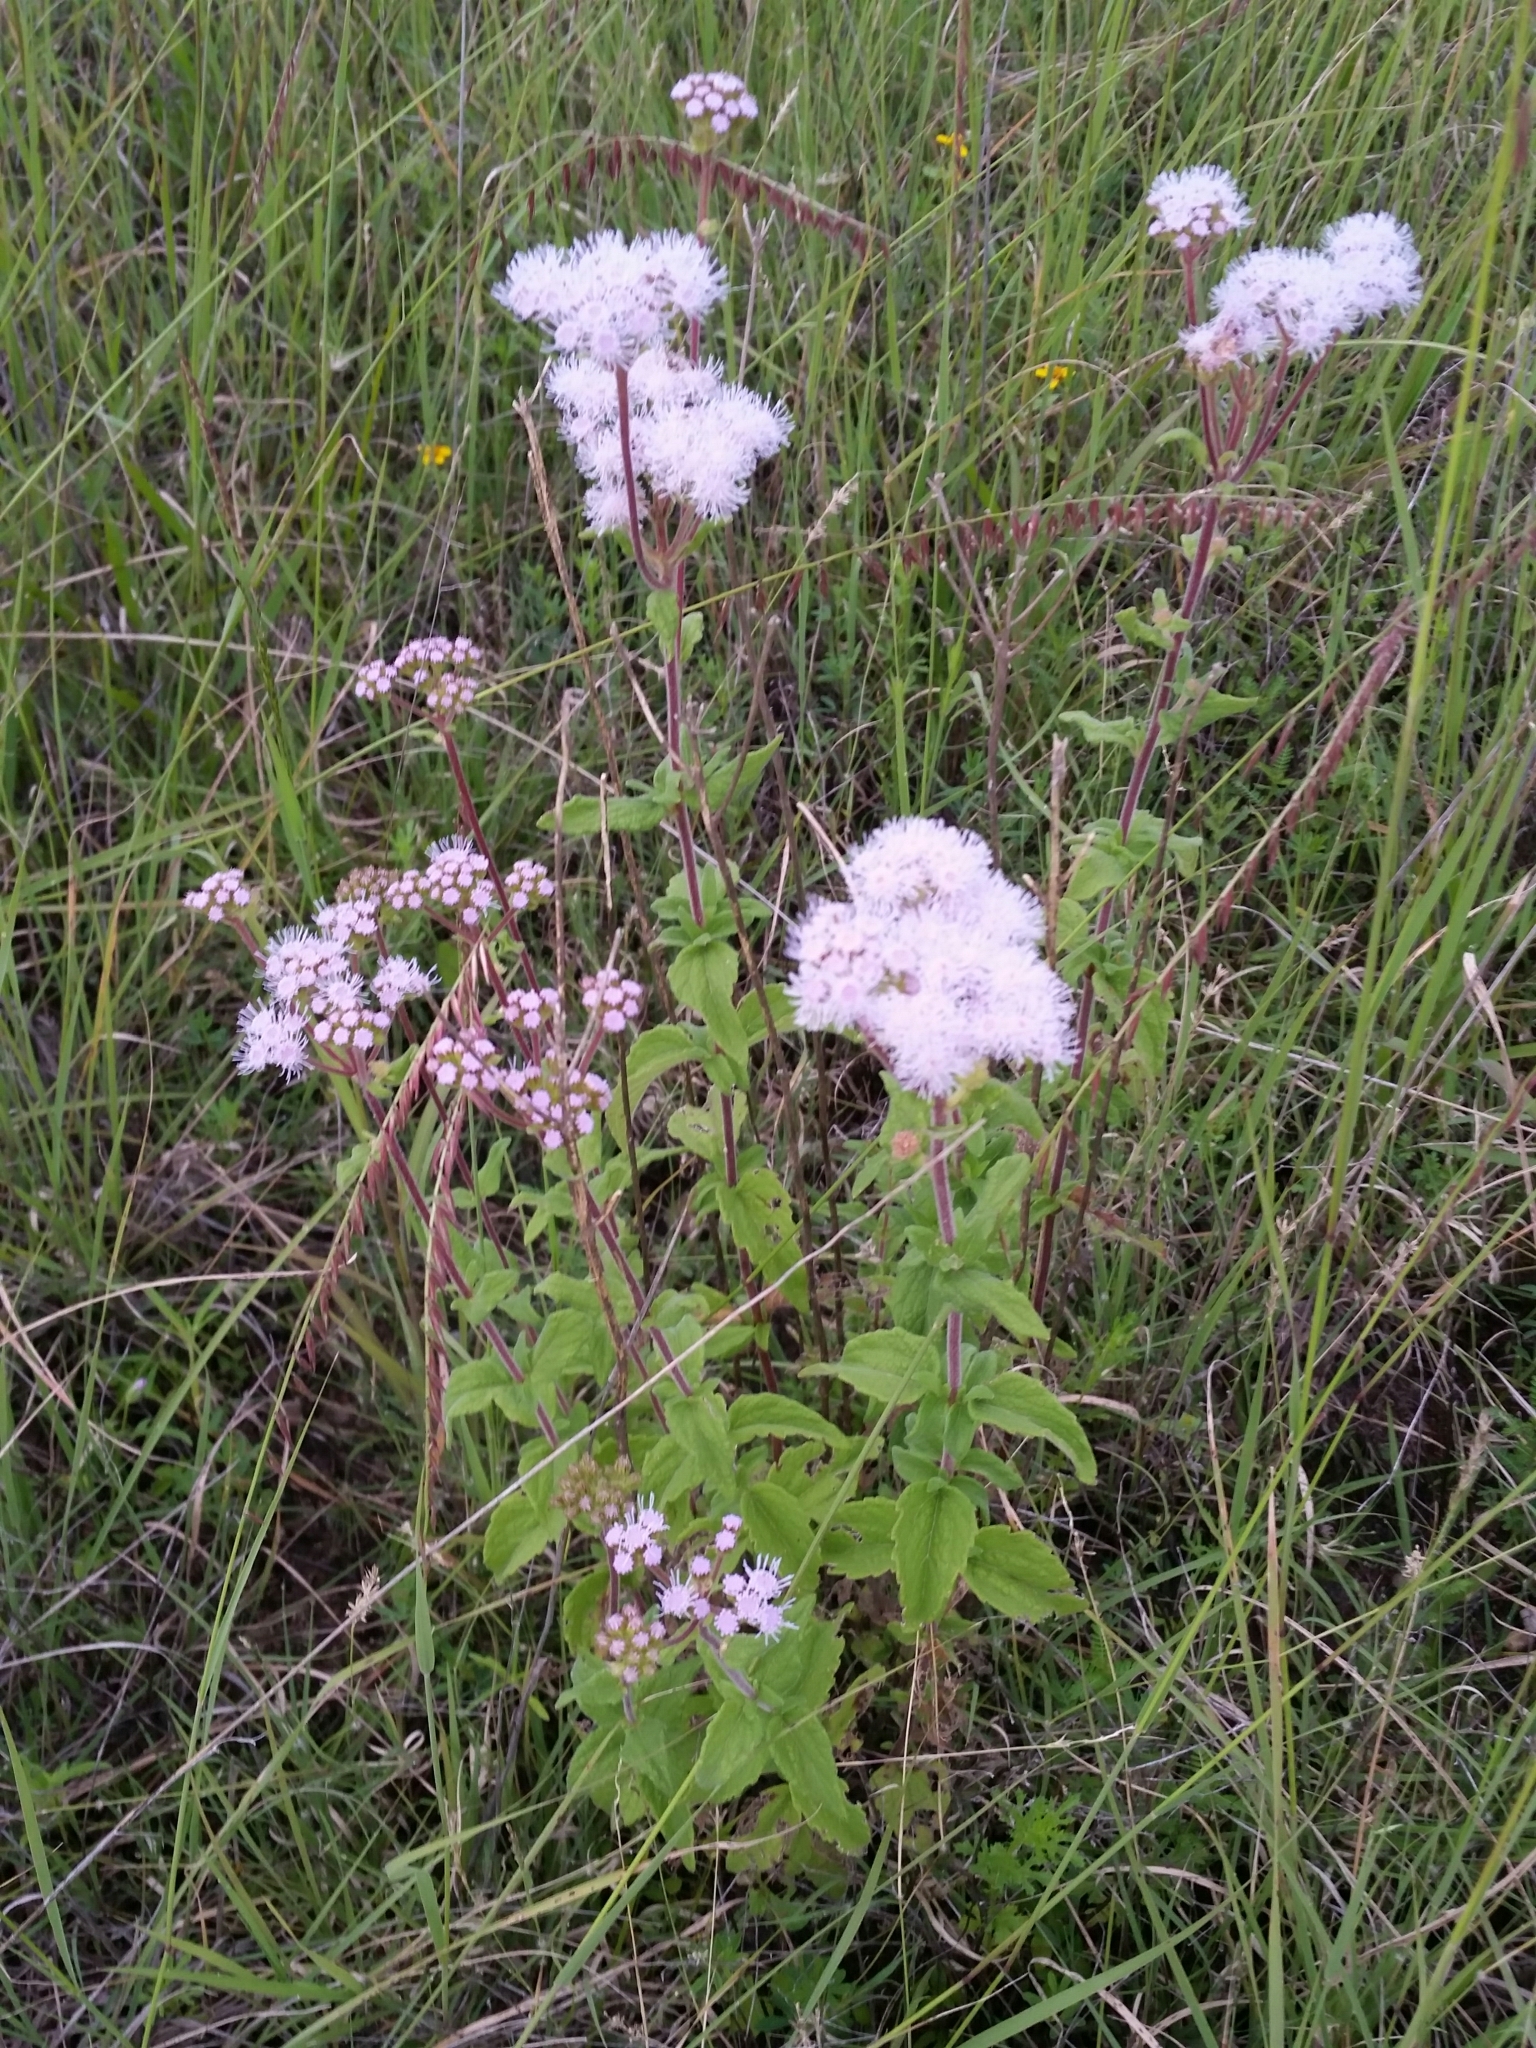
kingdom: Plantae
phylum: Tracheophyta
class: Magnoliopsida
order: Asterales
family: Asteraceae
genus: Ageratum
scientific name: Ageratum corymbosum
